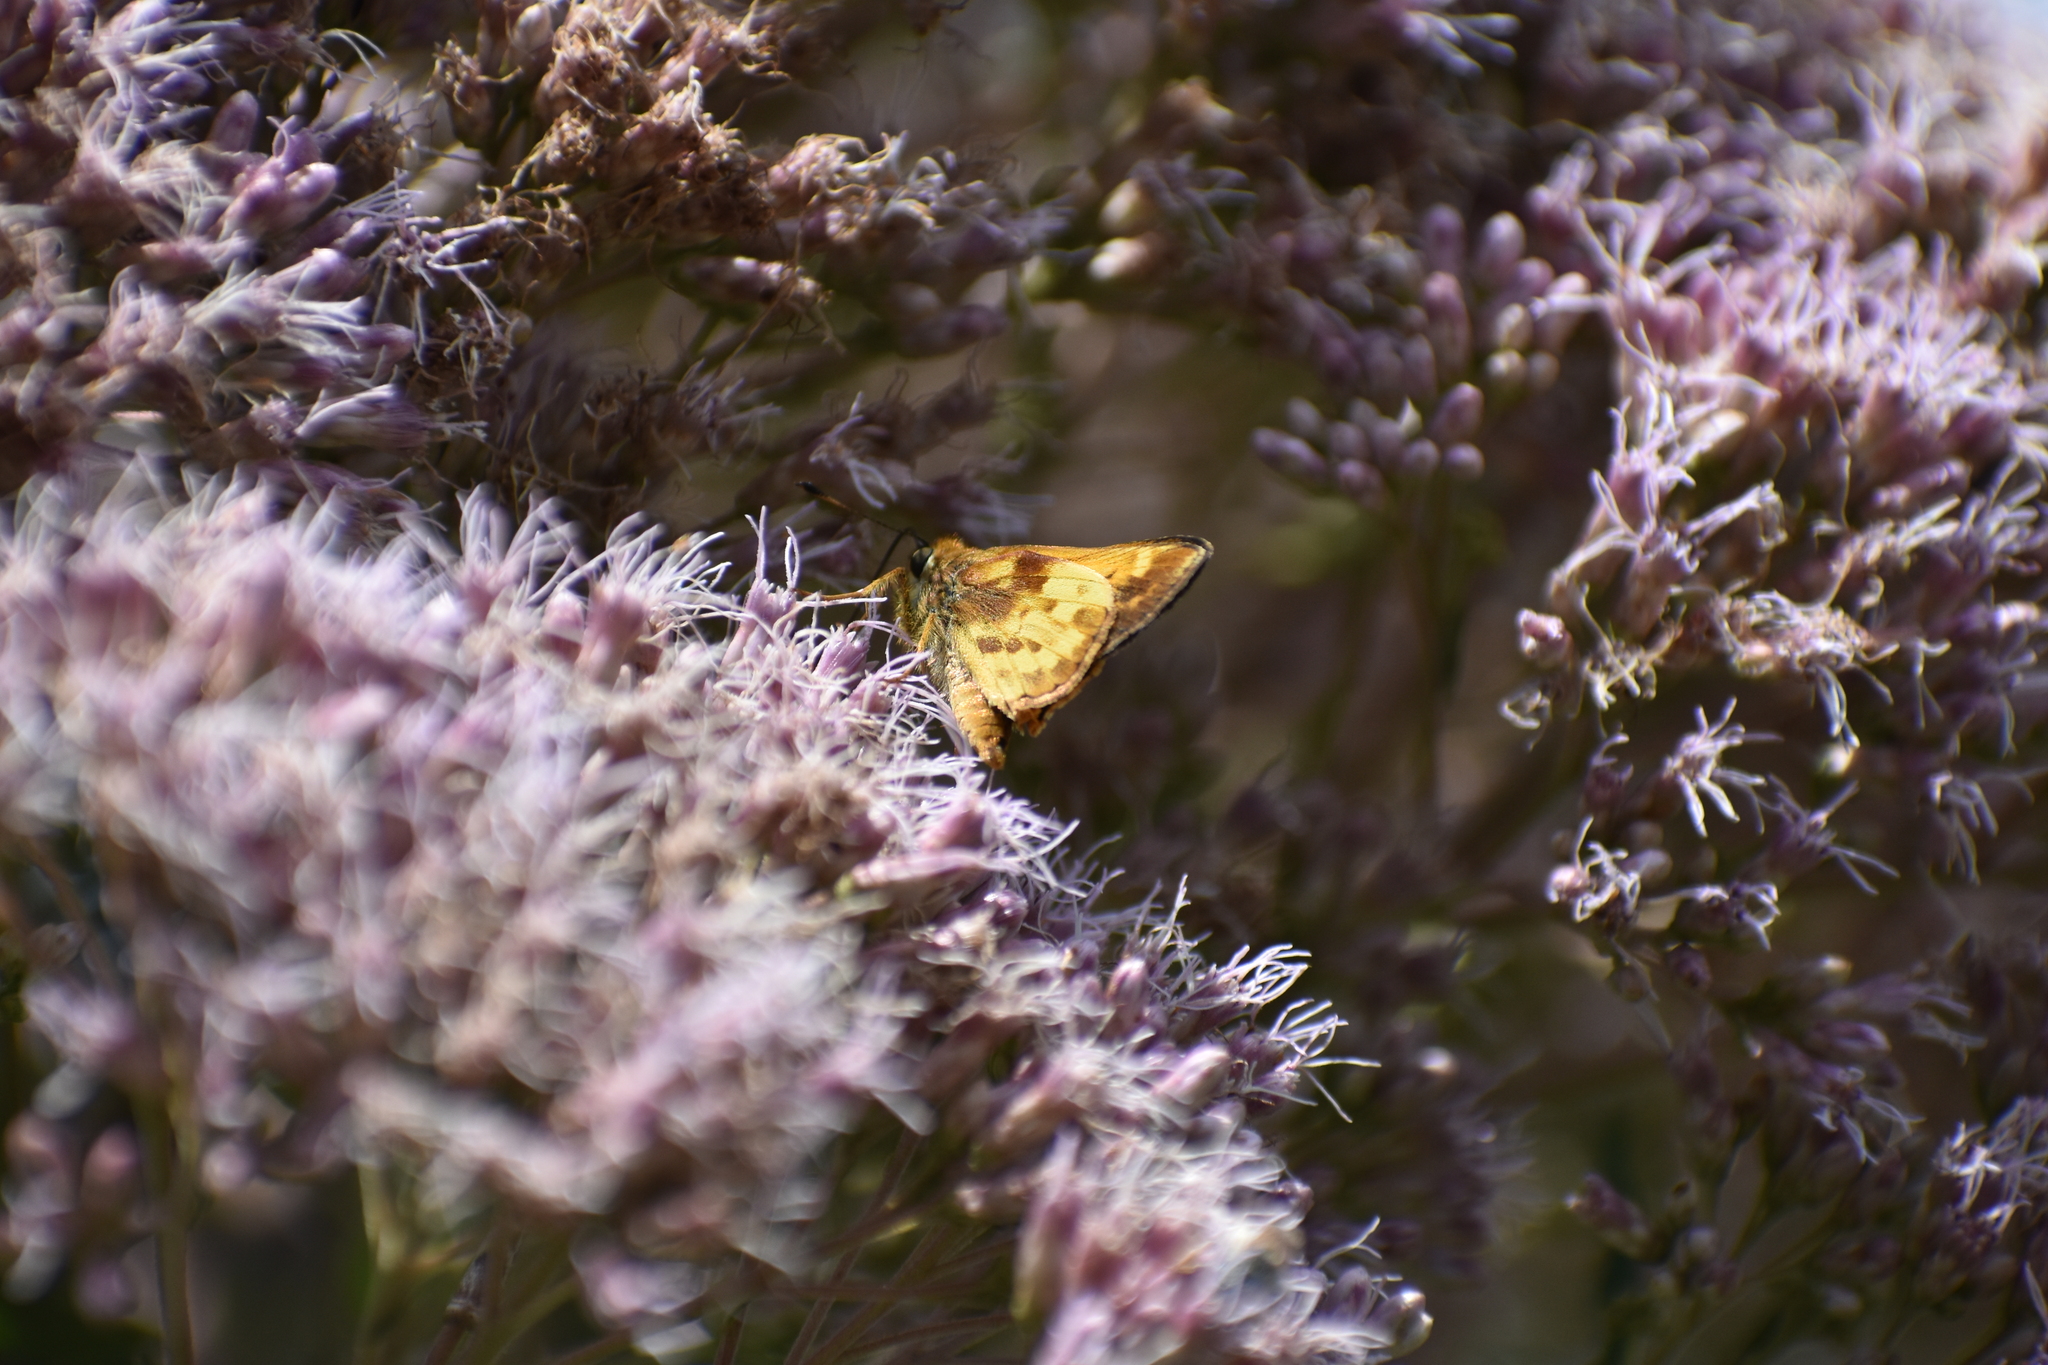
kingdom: Animalia
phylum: Arthropoda
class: Insecta
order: Lepidoptera
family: Hesperiidae
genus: Lon
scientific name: Lon zabulon
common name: Zabulon skipper
